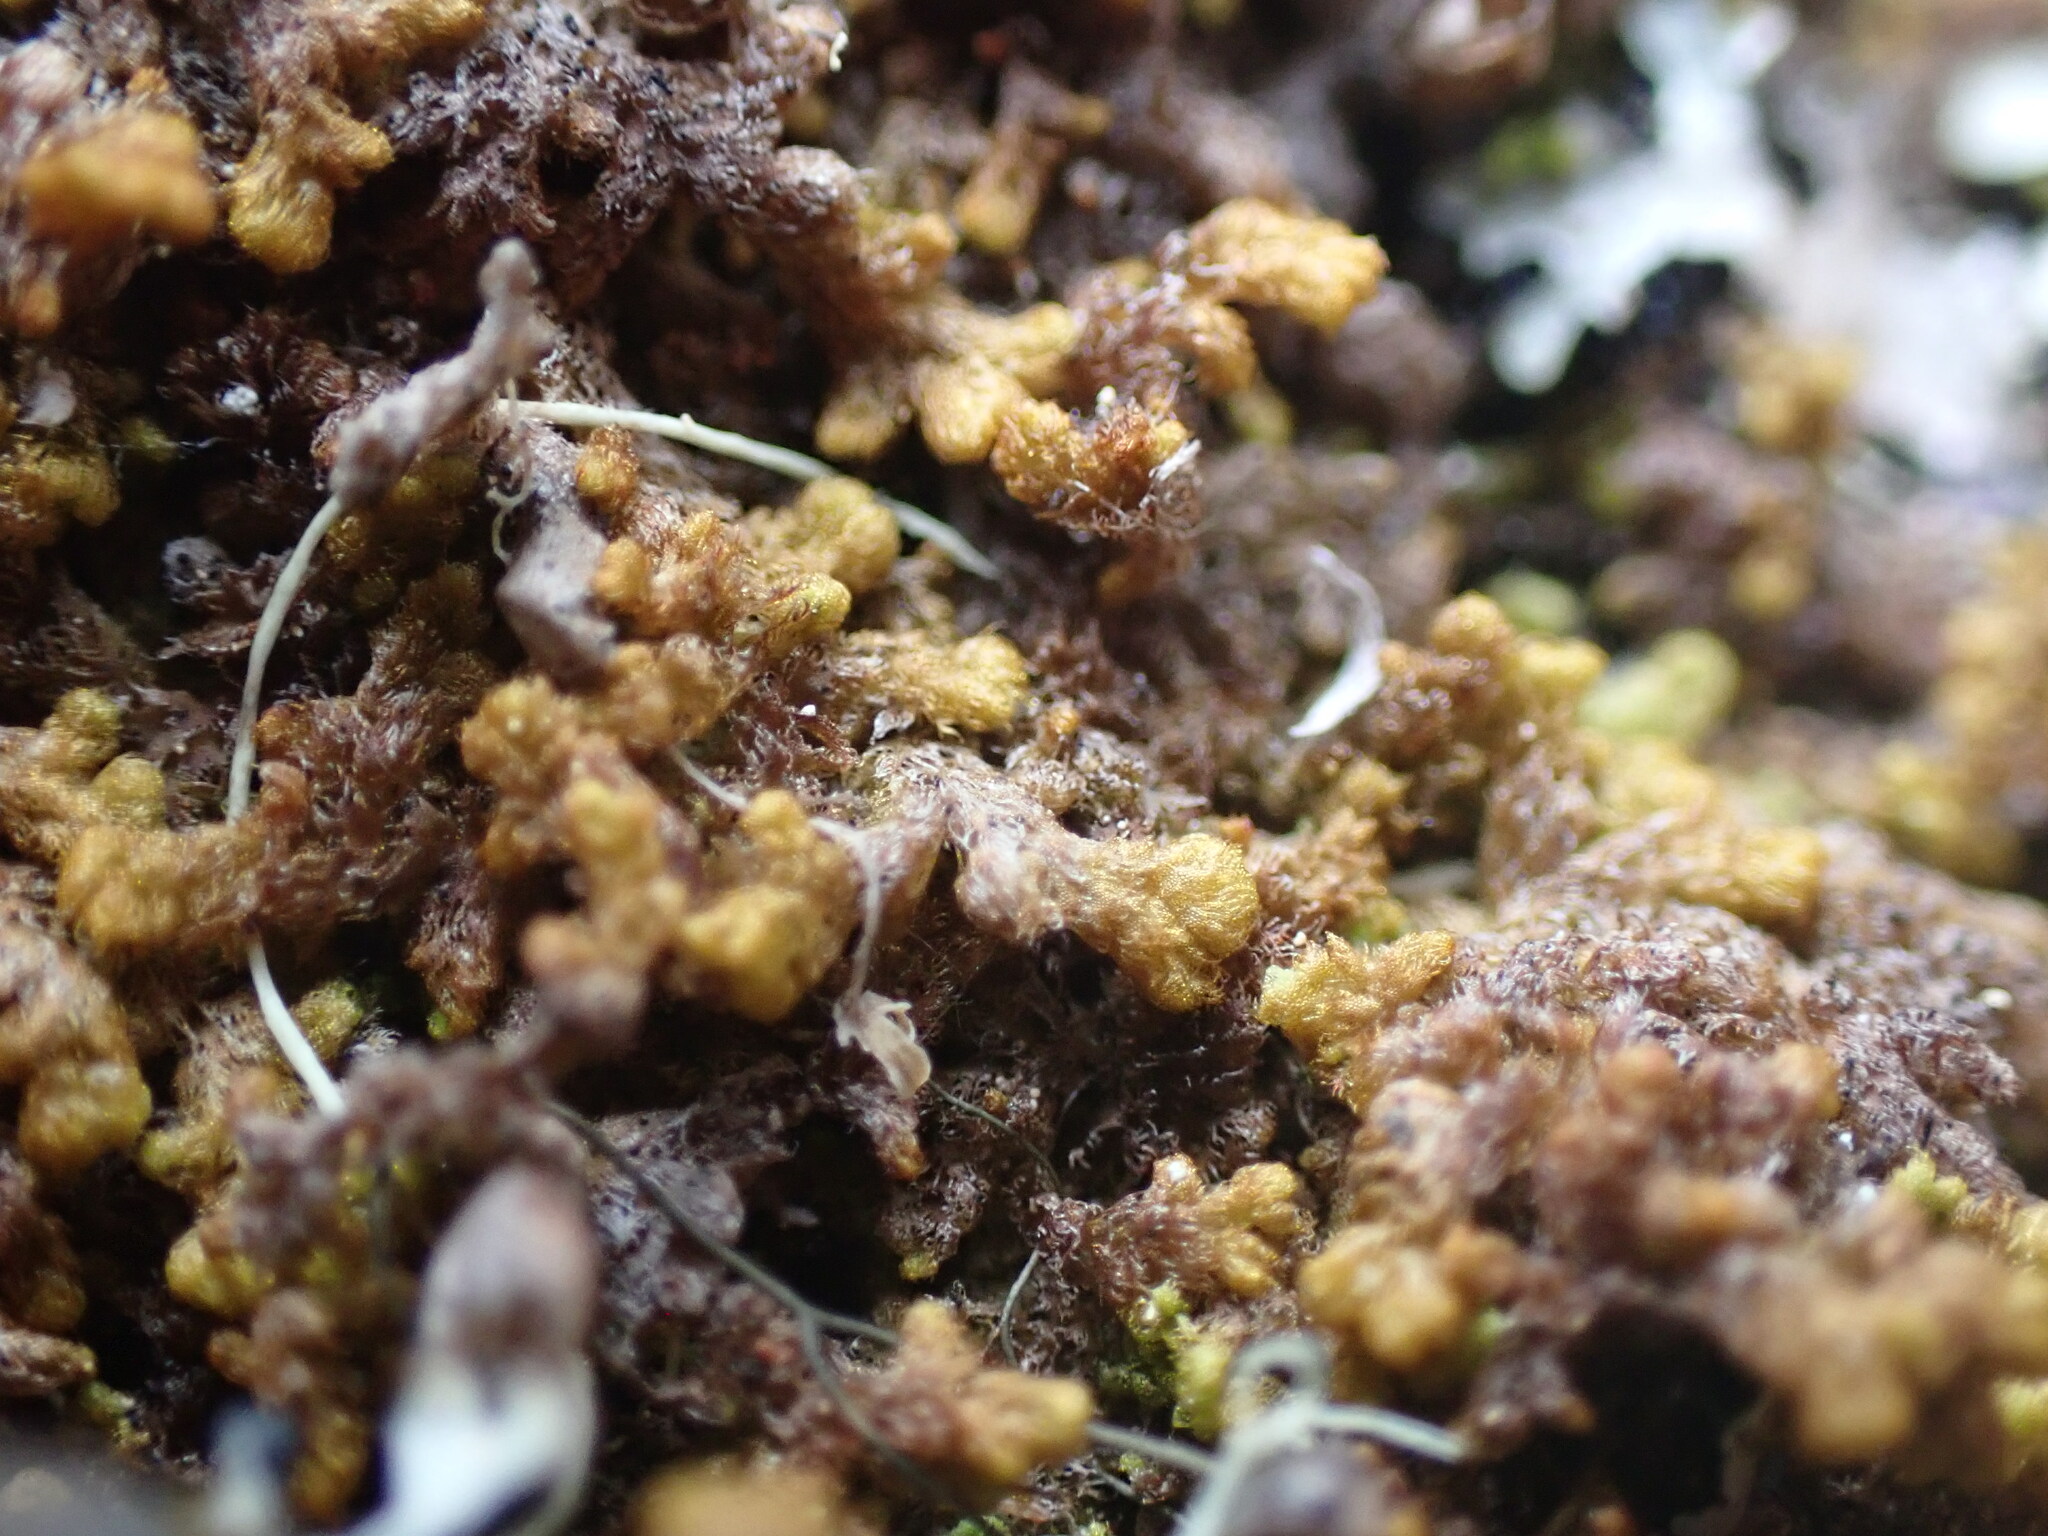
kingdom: Plantae
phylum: Marchantiophyta
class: Jungermanniopsida
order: Ptilidiales
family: Ptilidiaceae
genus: Ptilidium
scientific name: Ptilidium pulcherrimum
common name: Tree fringewort
